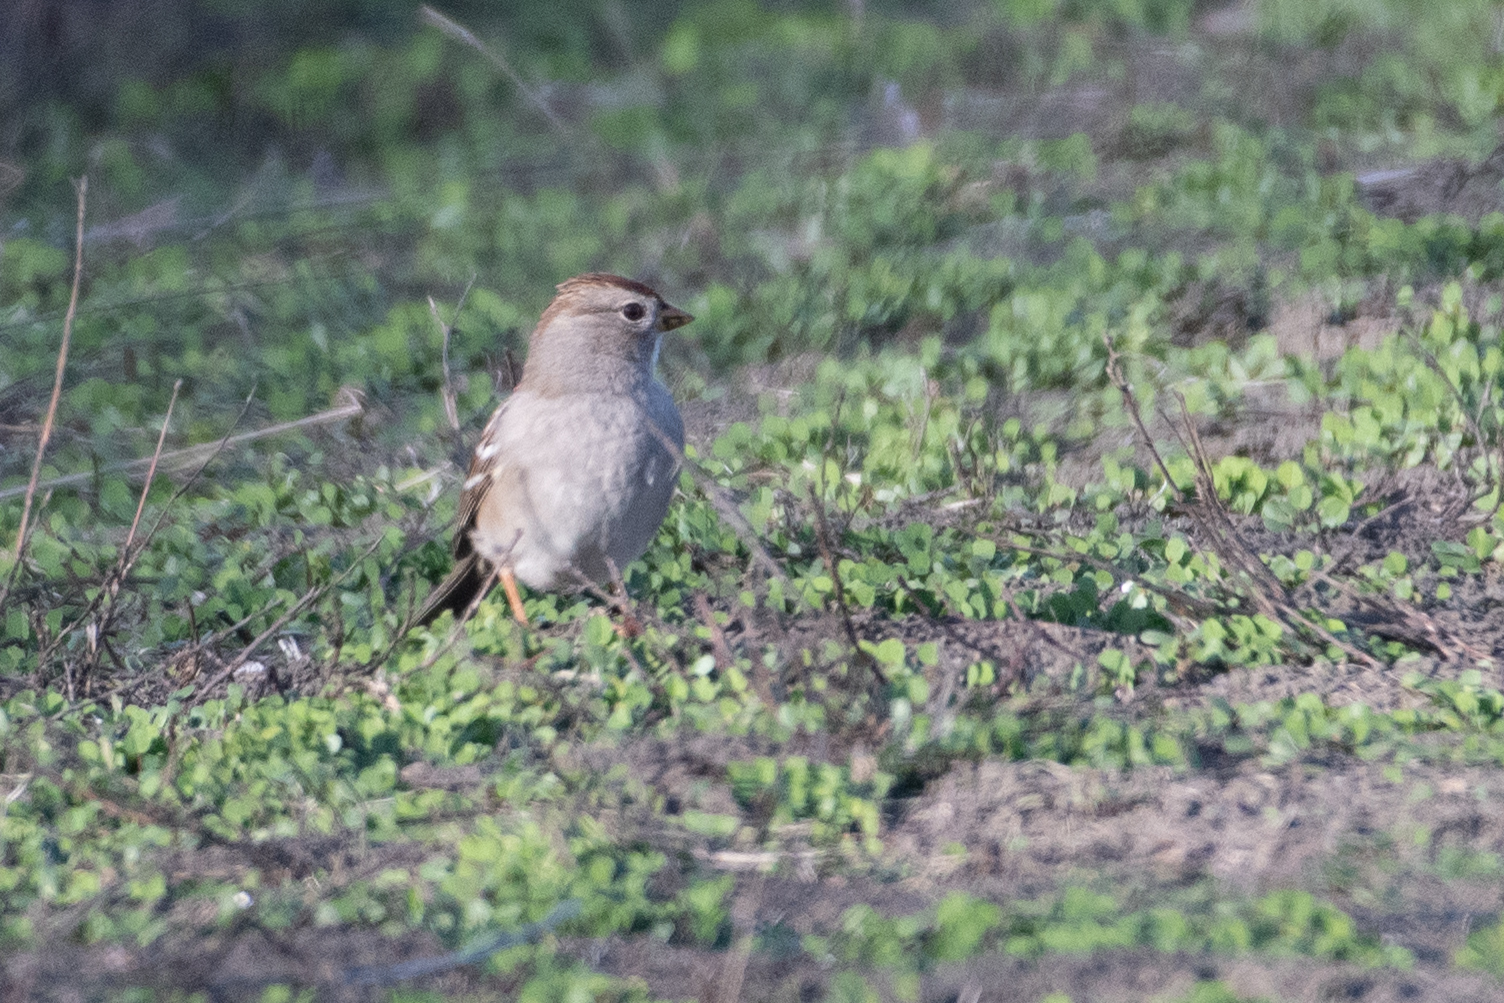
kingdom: Animalia
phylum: Chordata
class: Aves
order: Passeriformes
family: Passerellidae
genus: Zonotrichia
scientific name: Zonotrichia leucophrys
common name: White-crowned sparrow
